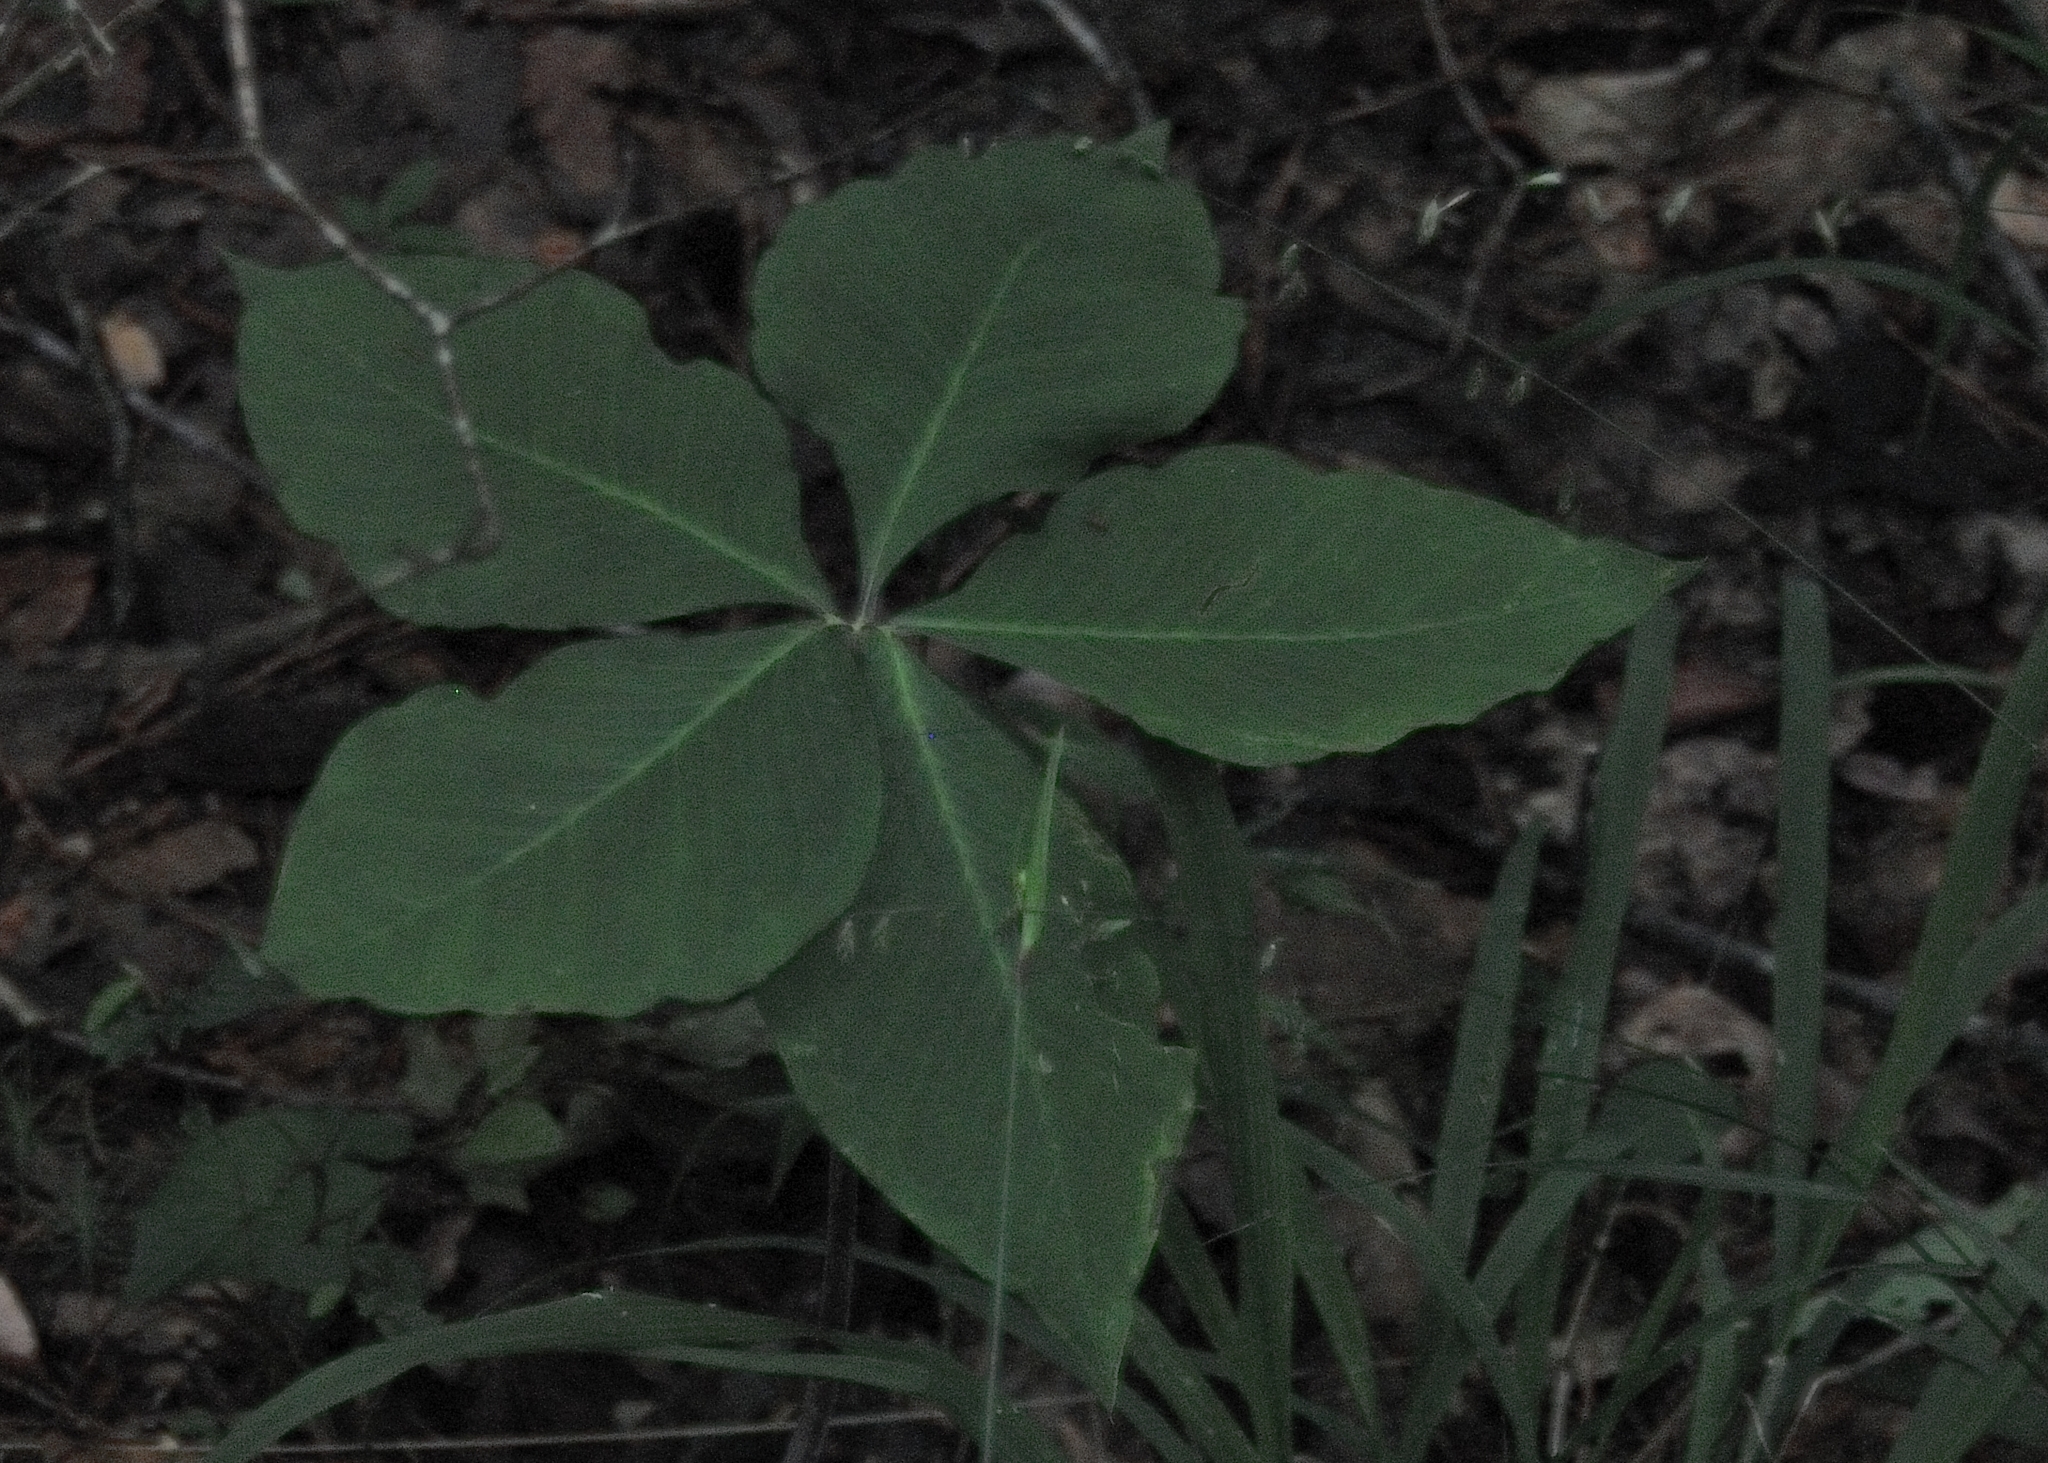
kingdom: Plantae
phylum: Tracheophyta
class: Liliopsida
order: Alismatales
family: Araceae
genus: Arisaema
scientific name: Arisaema quinatum
